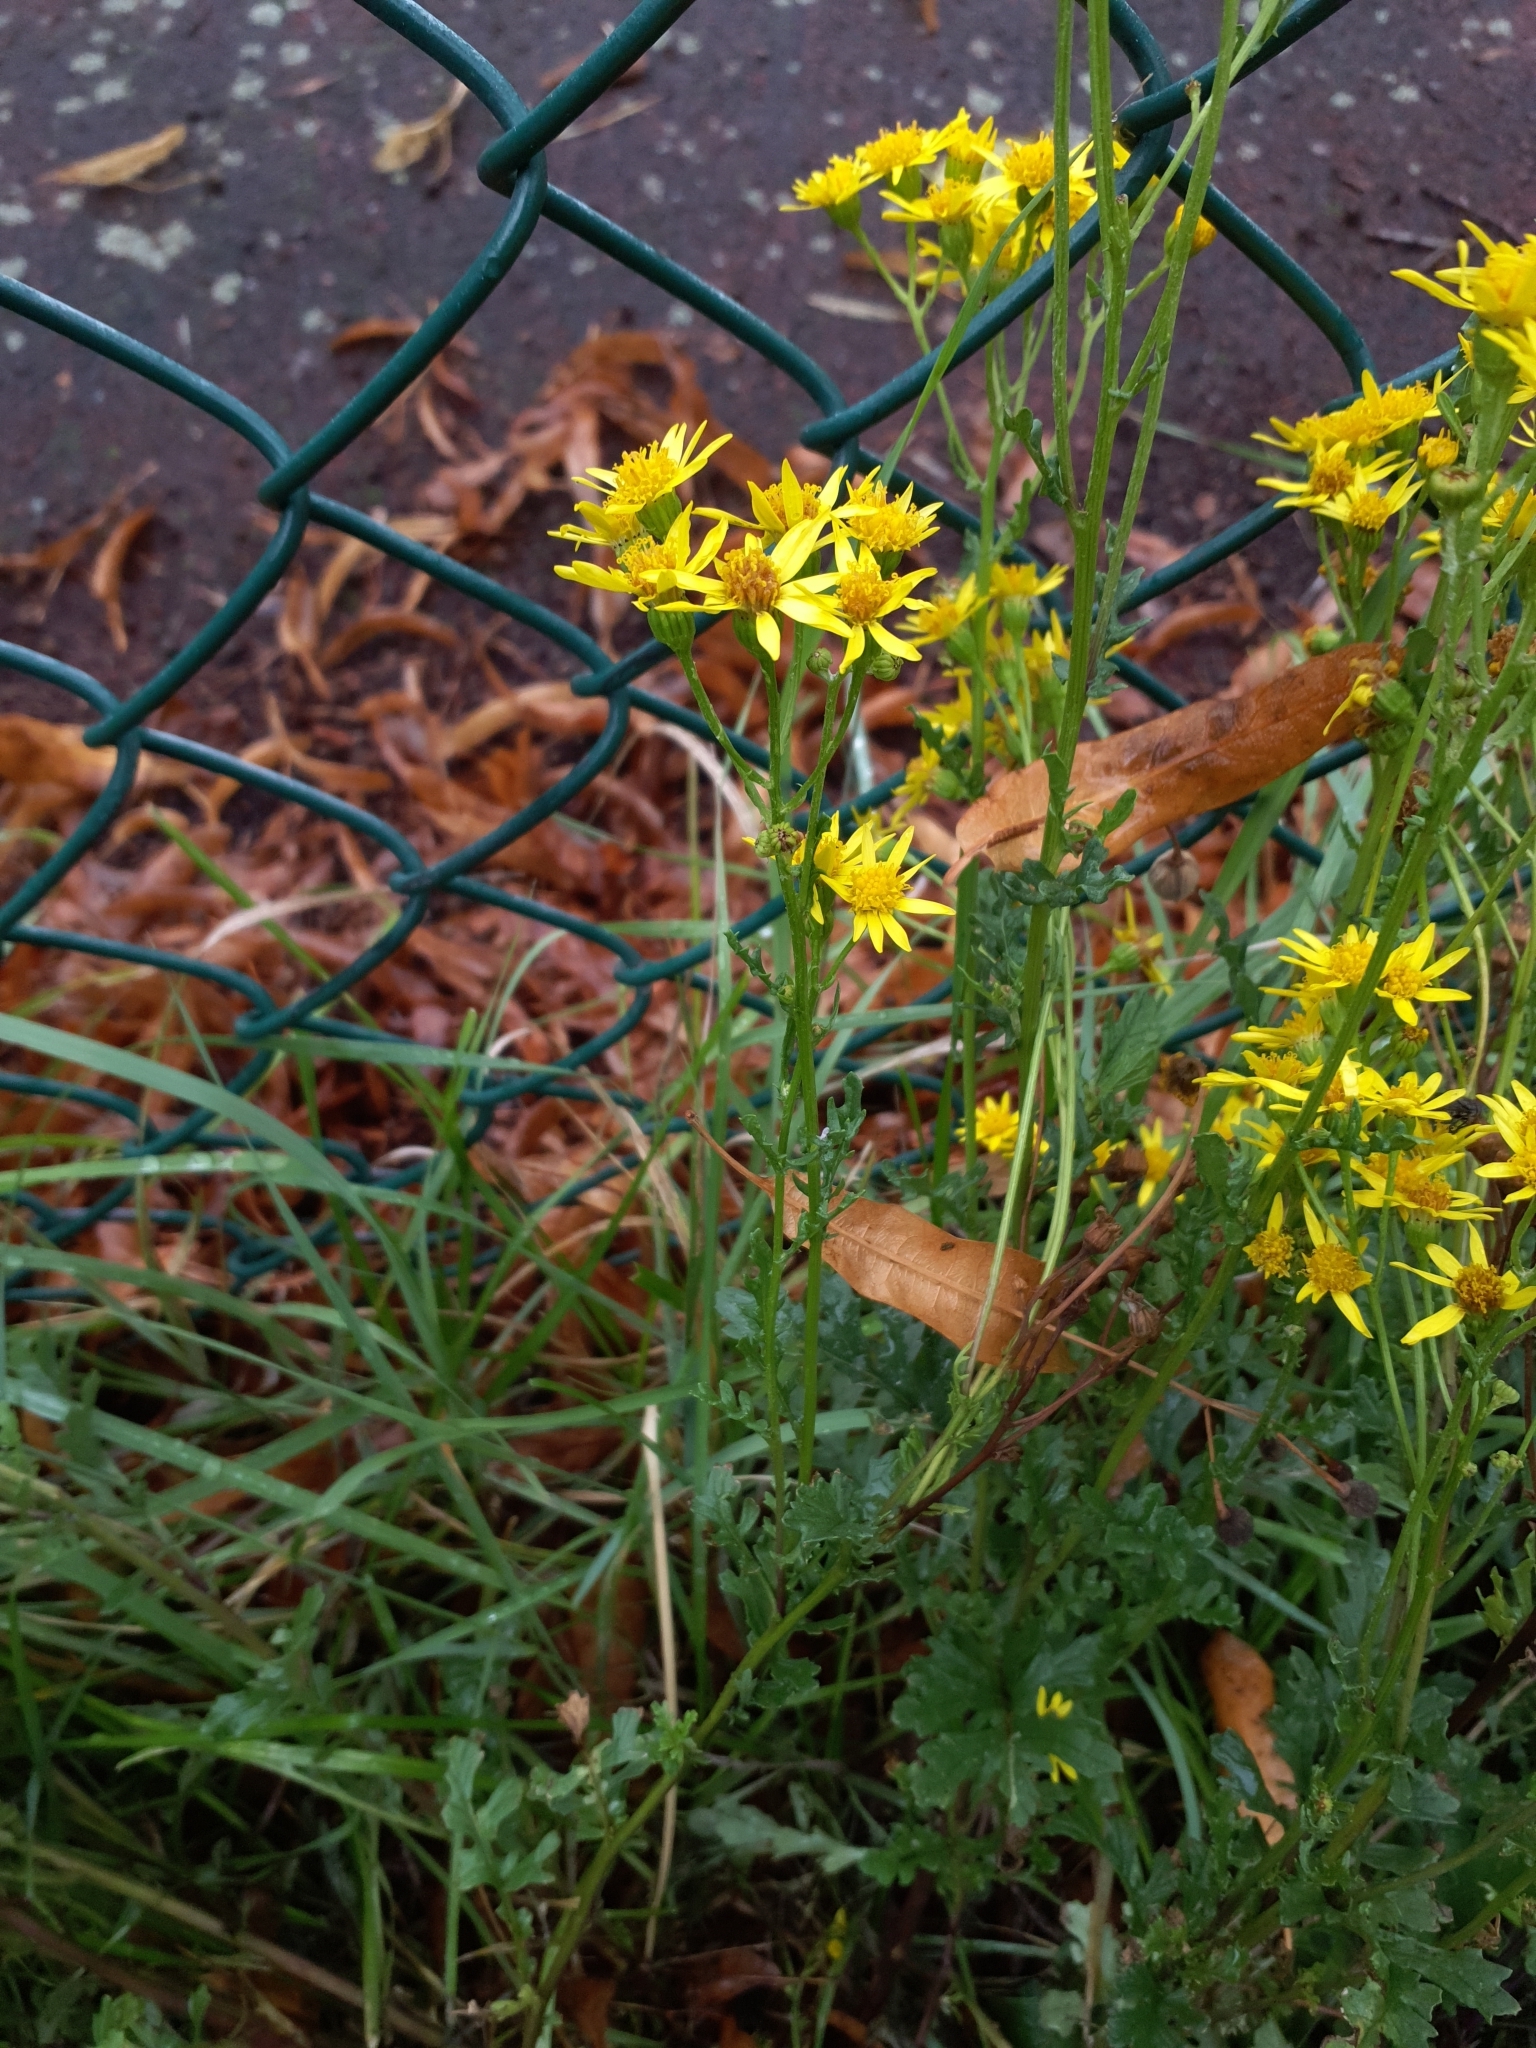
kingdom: Plantae
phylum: Tracheophyta
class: Magnoliopsida
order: Asterales
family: Asteraceae
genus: Jacobaea
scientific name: Jacobaea vulgaris
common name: Stinking willie
